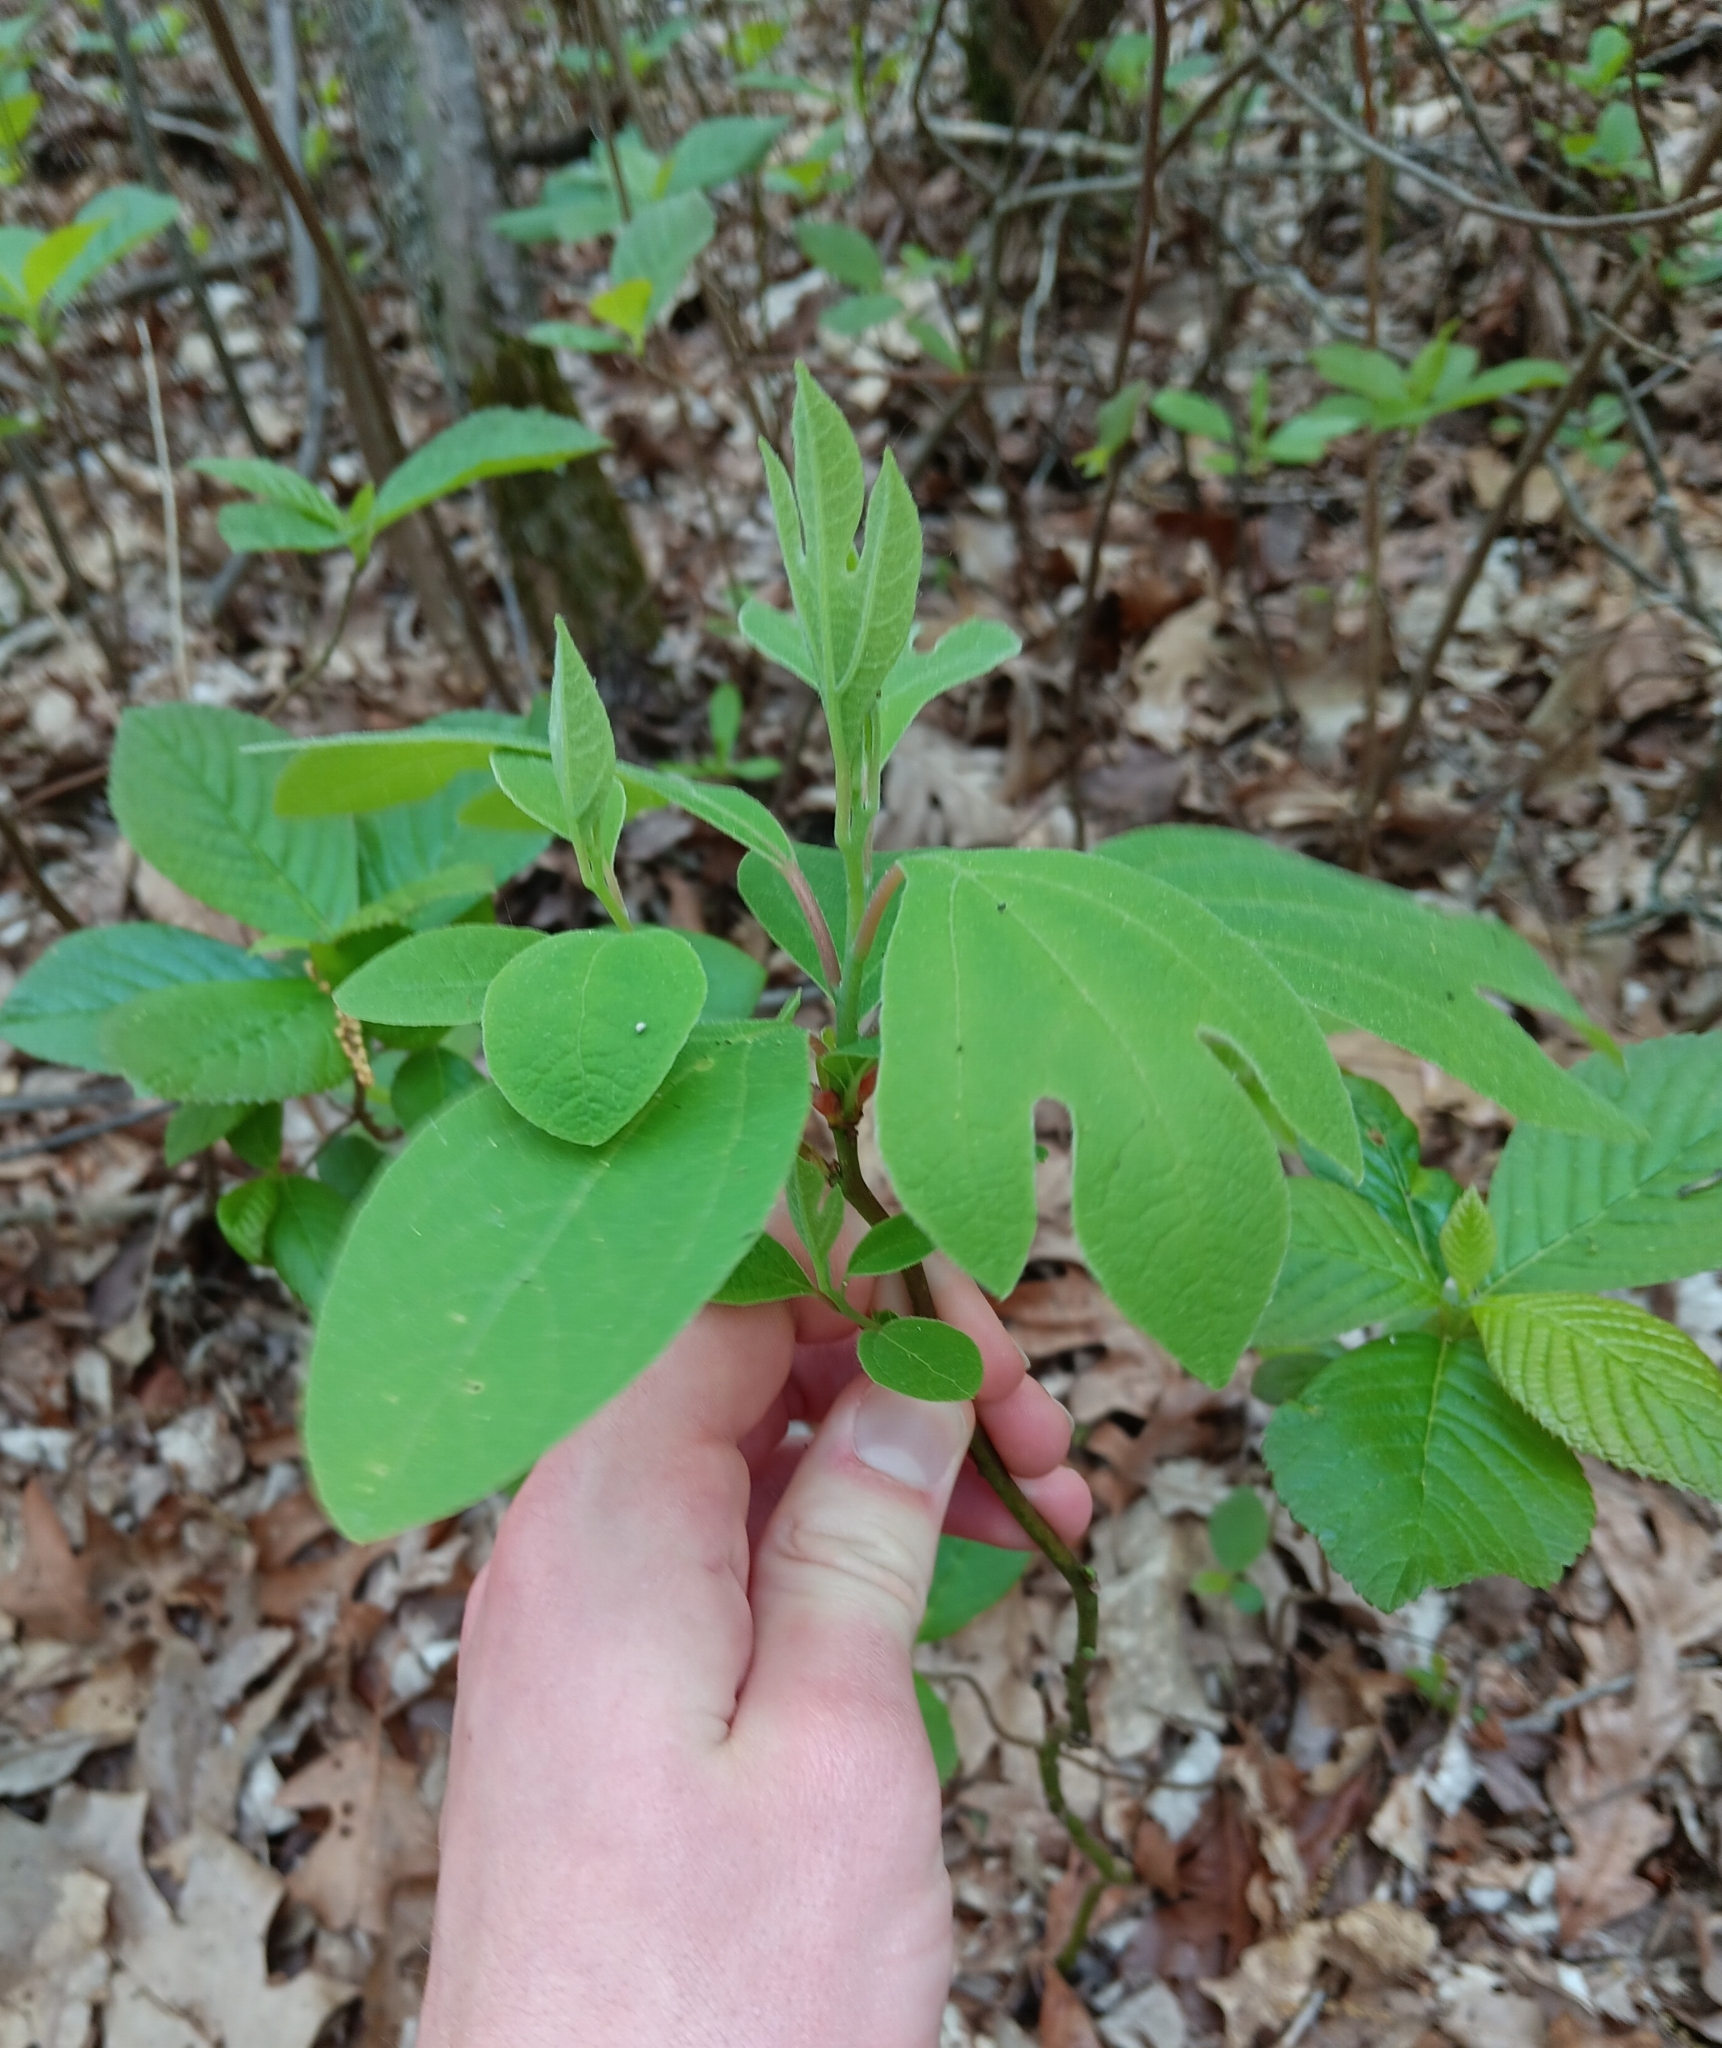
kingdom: Plantae
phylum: Tracheophyta
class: Magnoliopsida
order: Laurales
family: Lauraceae
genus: Sassafras
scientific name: Sassafras albidum
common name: Sassafras
